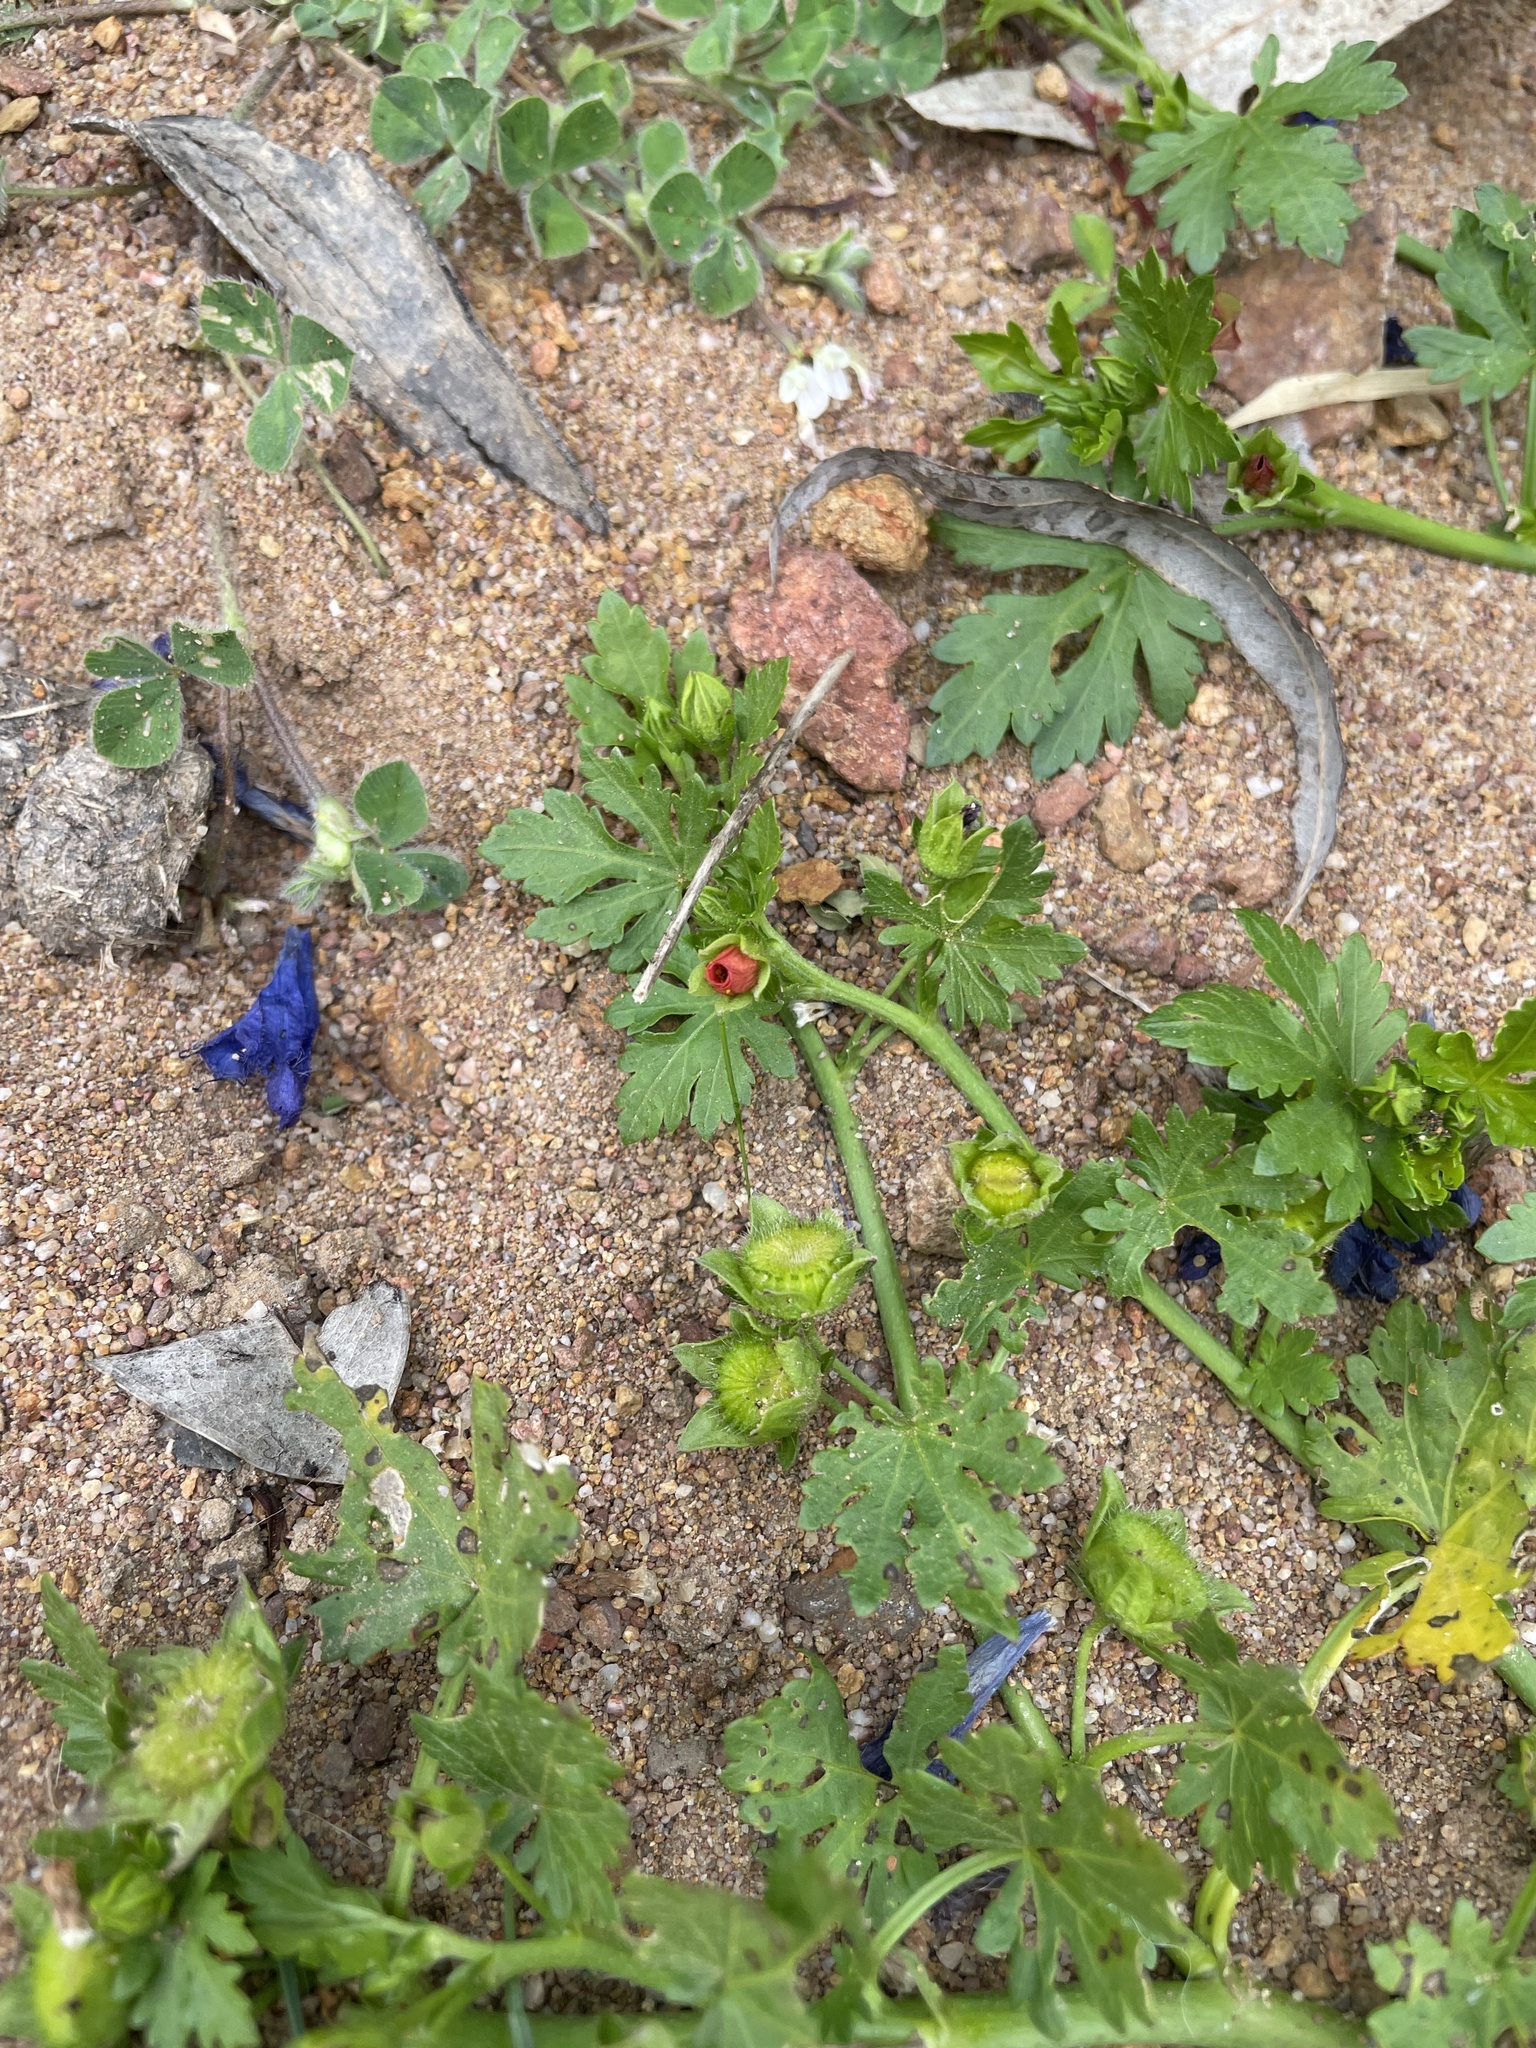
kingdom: Plantae
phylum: Tracheophyta
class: Magnoliopsida
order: Malvales
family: Malvaceae
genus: Modiola
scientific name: Modiola caroliniana
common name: Carolina bristlemallow
